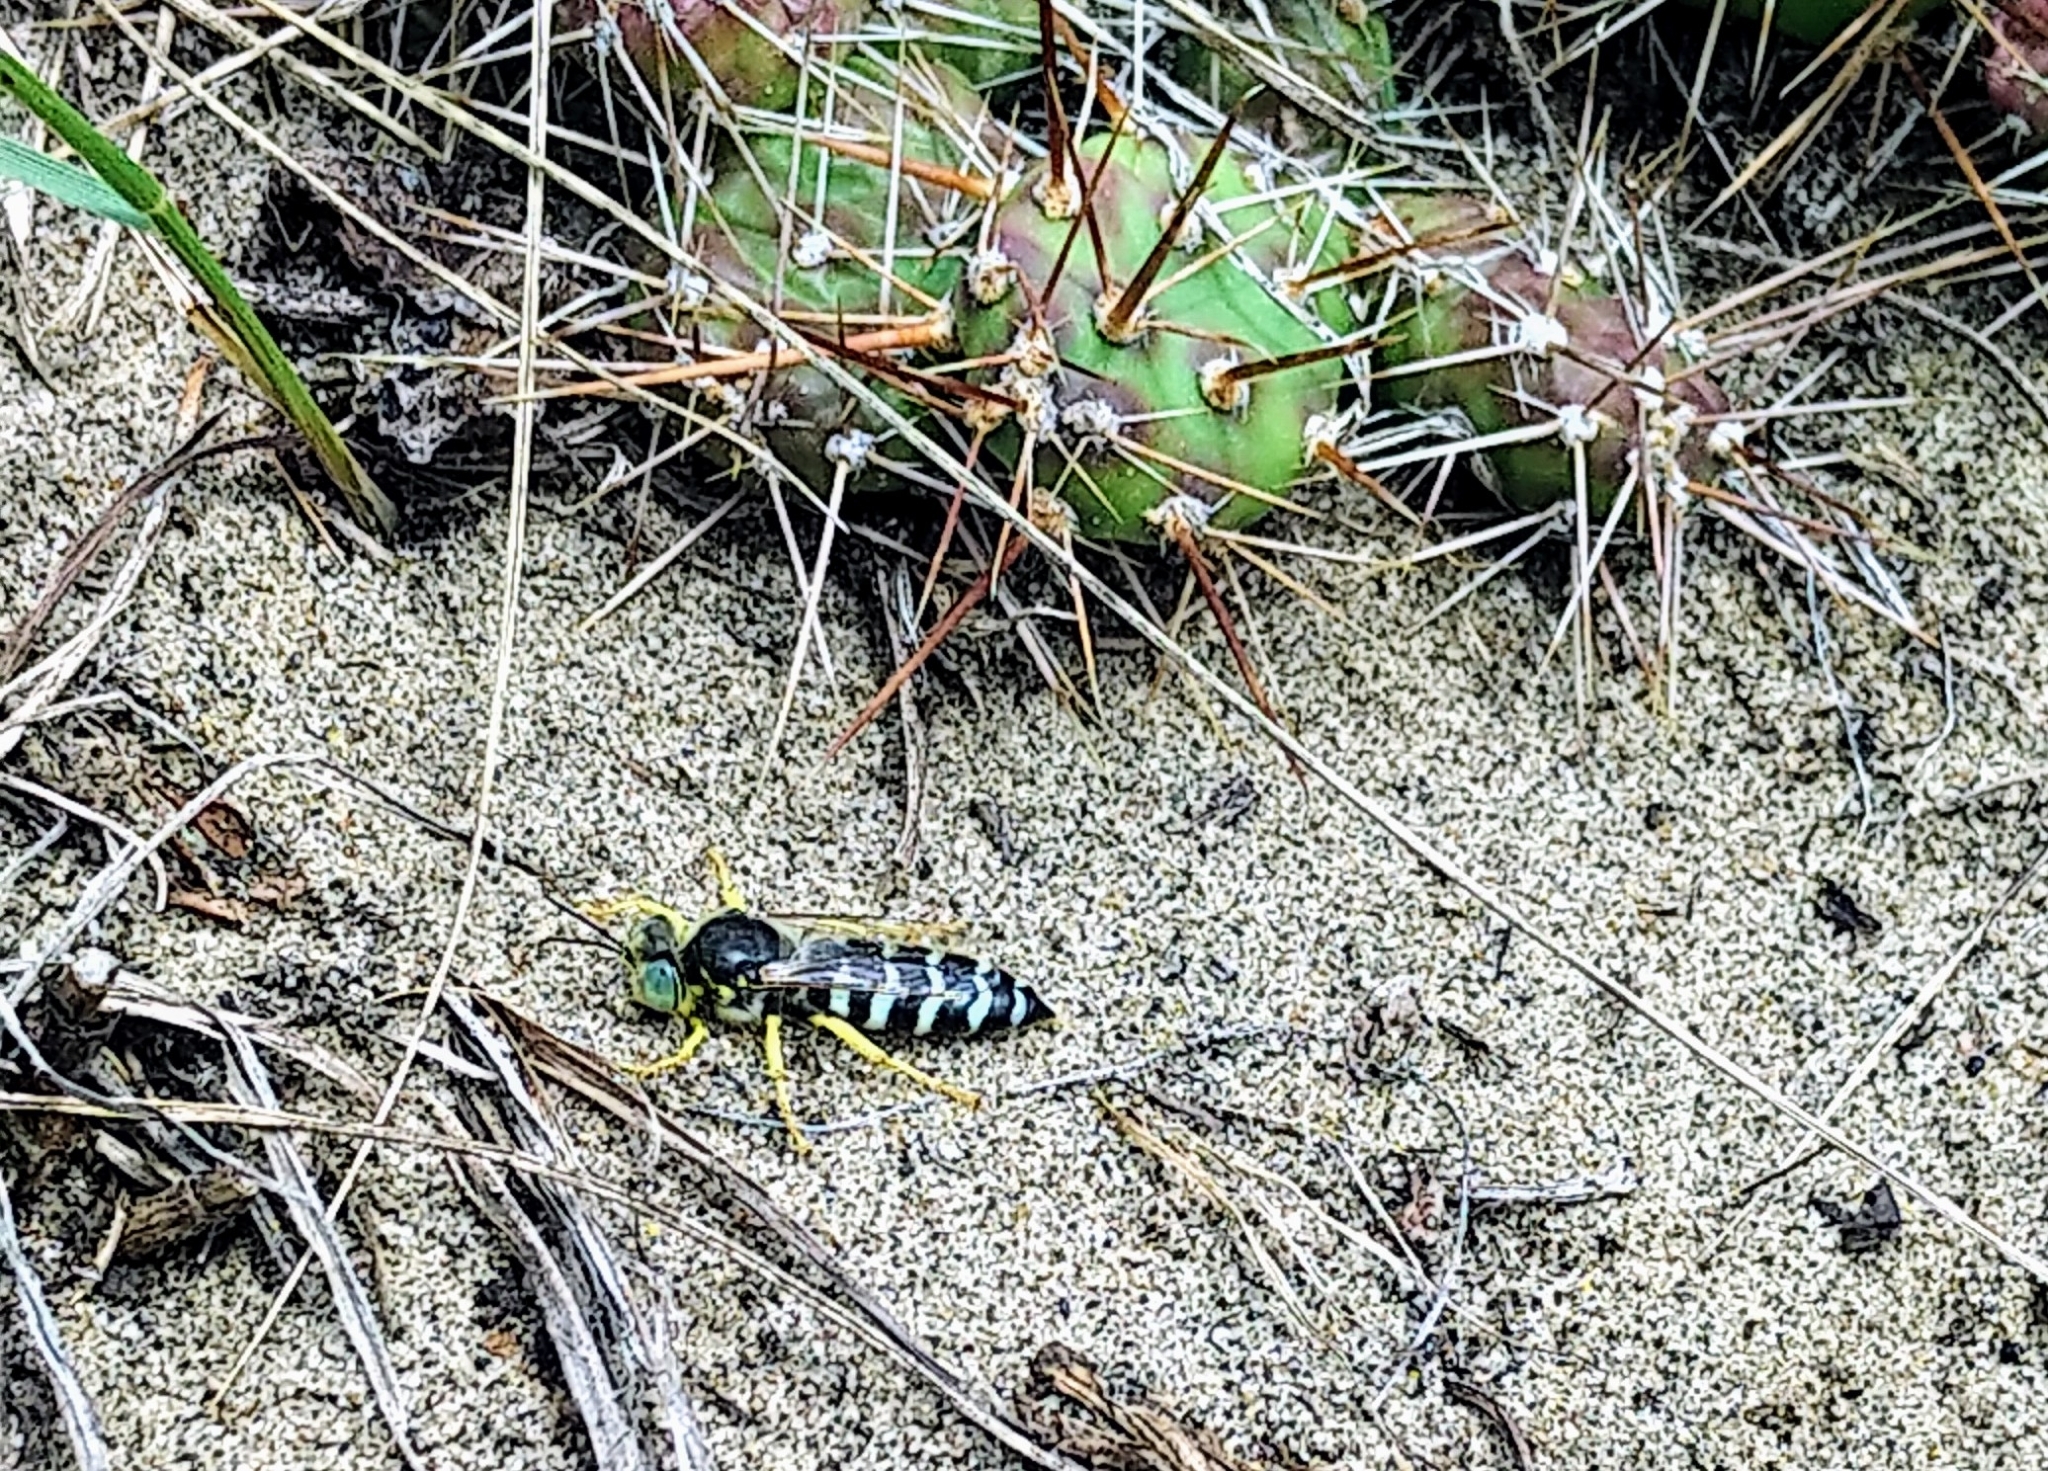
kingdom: Animalia
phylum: Arthropoda
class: Insecta
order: Hymenoptera
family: Crabronidae
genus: Bembix
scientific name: Bembix americana
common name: American sand wasp
